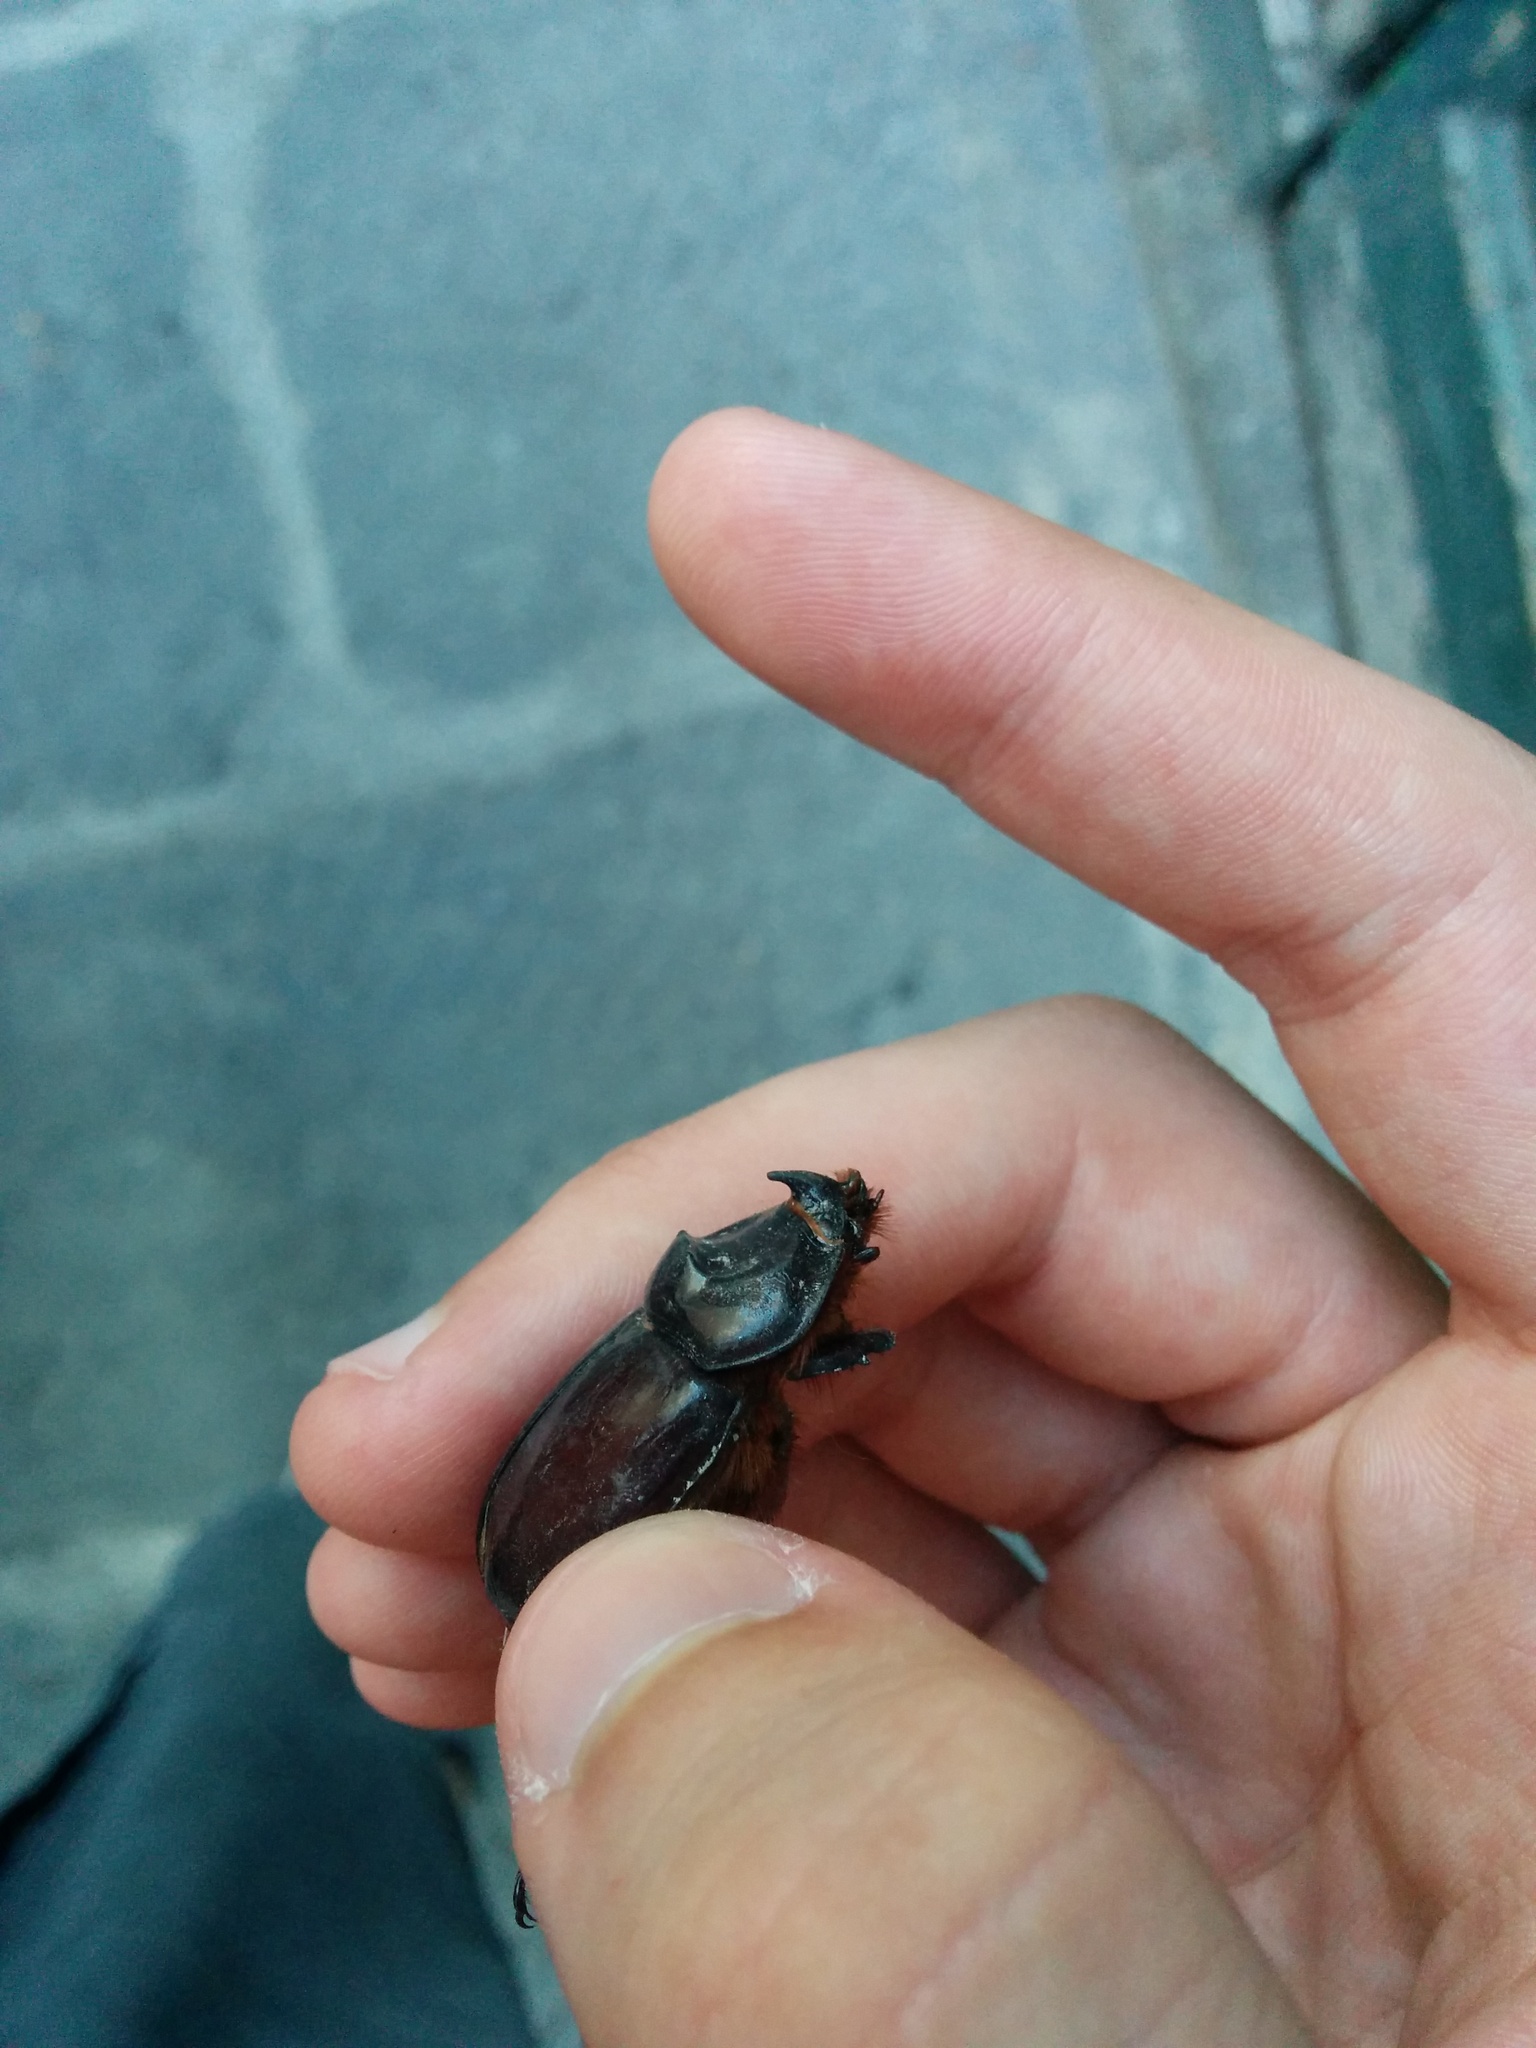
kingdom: Animalia
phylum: Arthropoda
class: Insecta
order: Coleoptera
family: Scarabaeidae
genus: Oryctes
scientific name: Oryctes nasicornis
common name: European rhinoceros beetle
